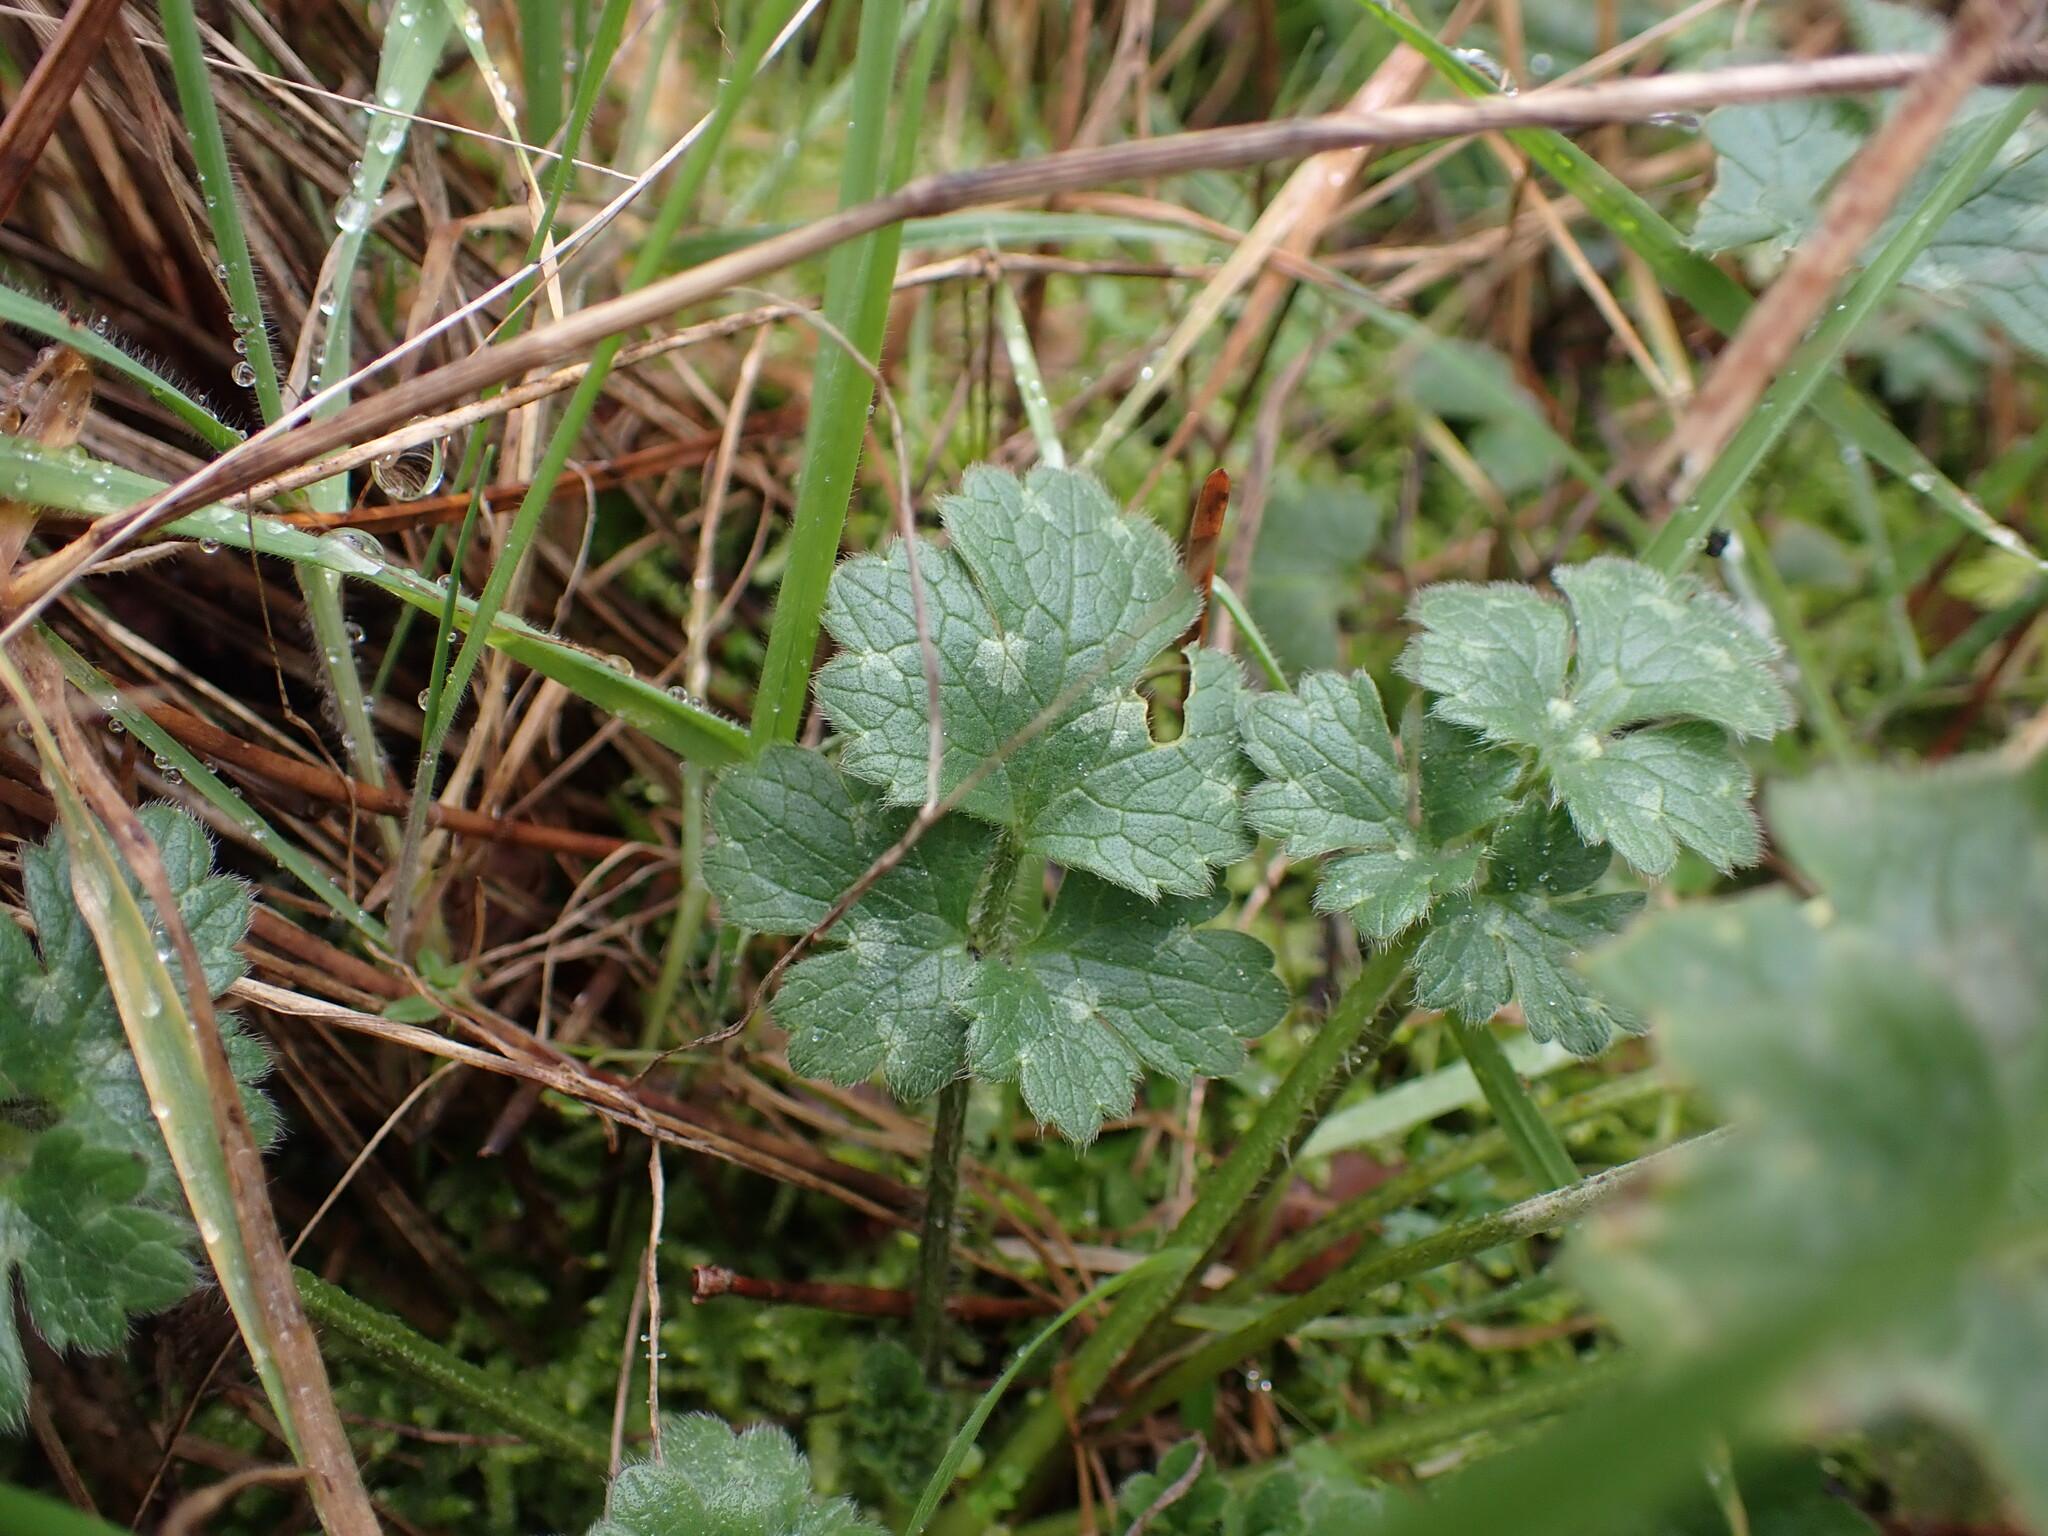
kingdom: Plantae
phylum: Tracheophyta
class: Magnoliopsida
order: Ranunculales
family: Ranunculaceae
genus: Ranunculus
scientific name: Ranunculus bulbosus
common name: Bulbous buttercup
